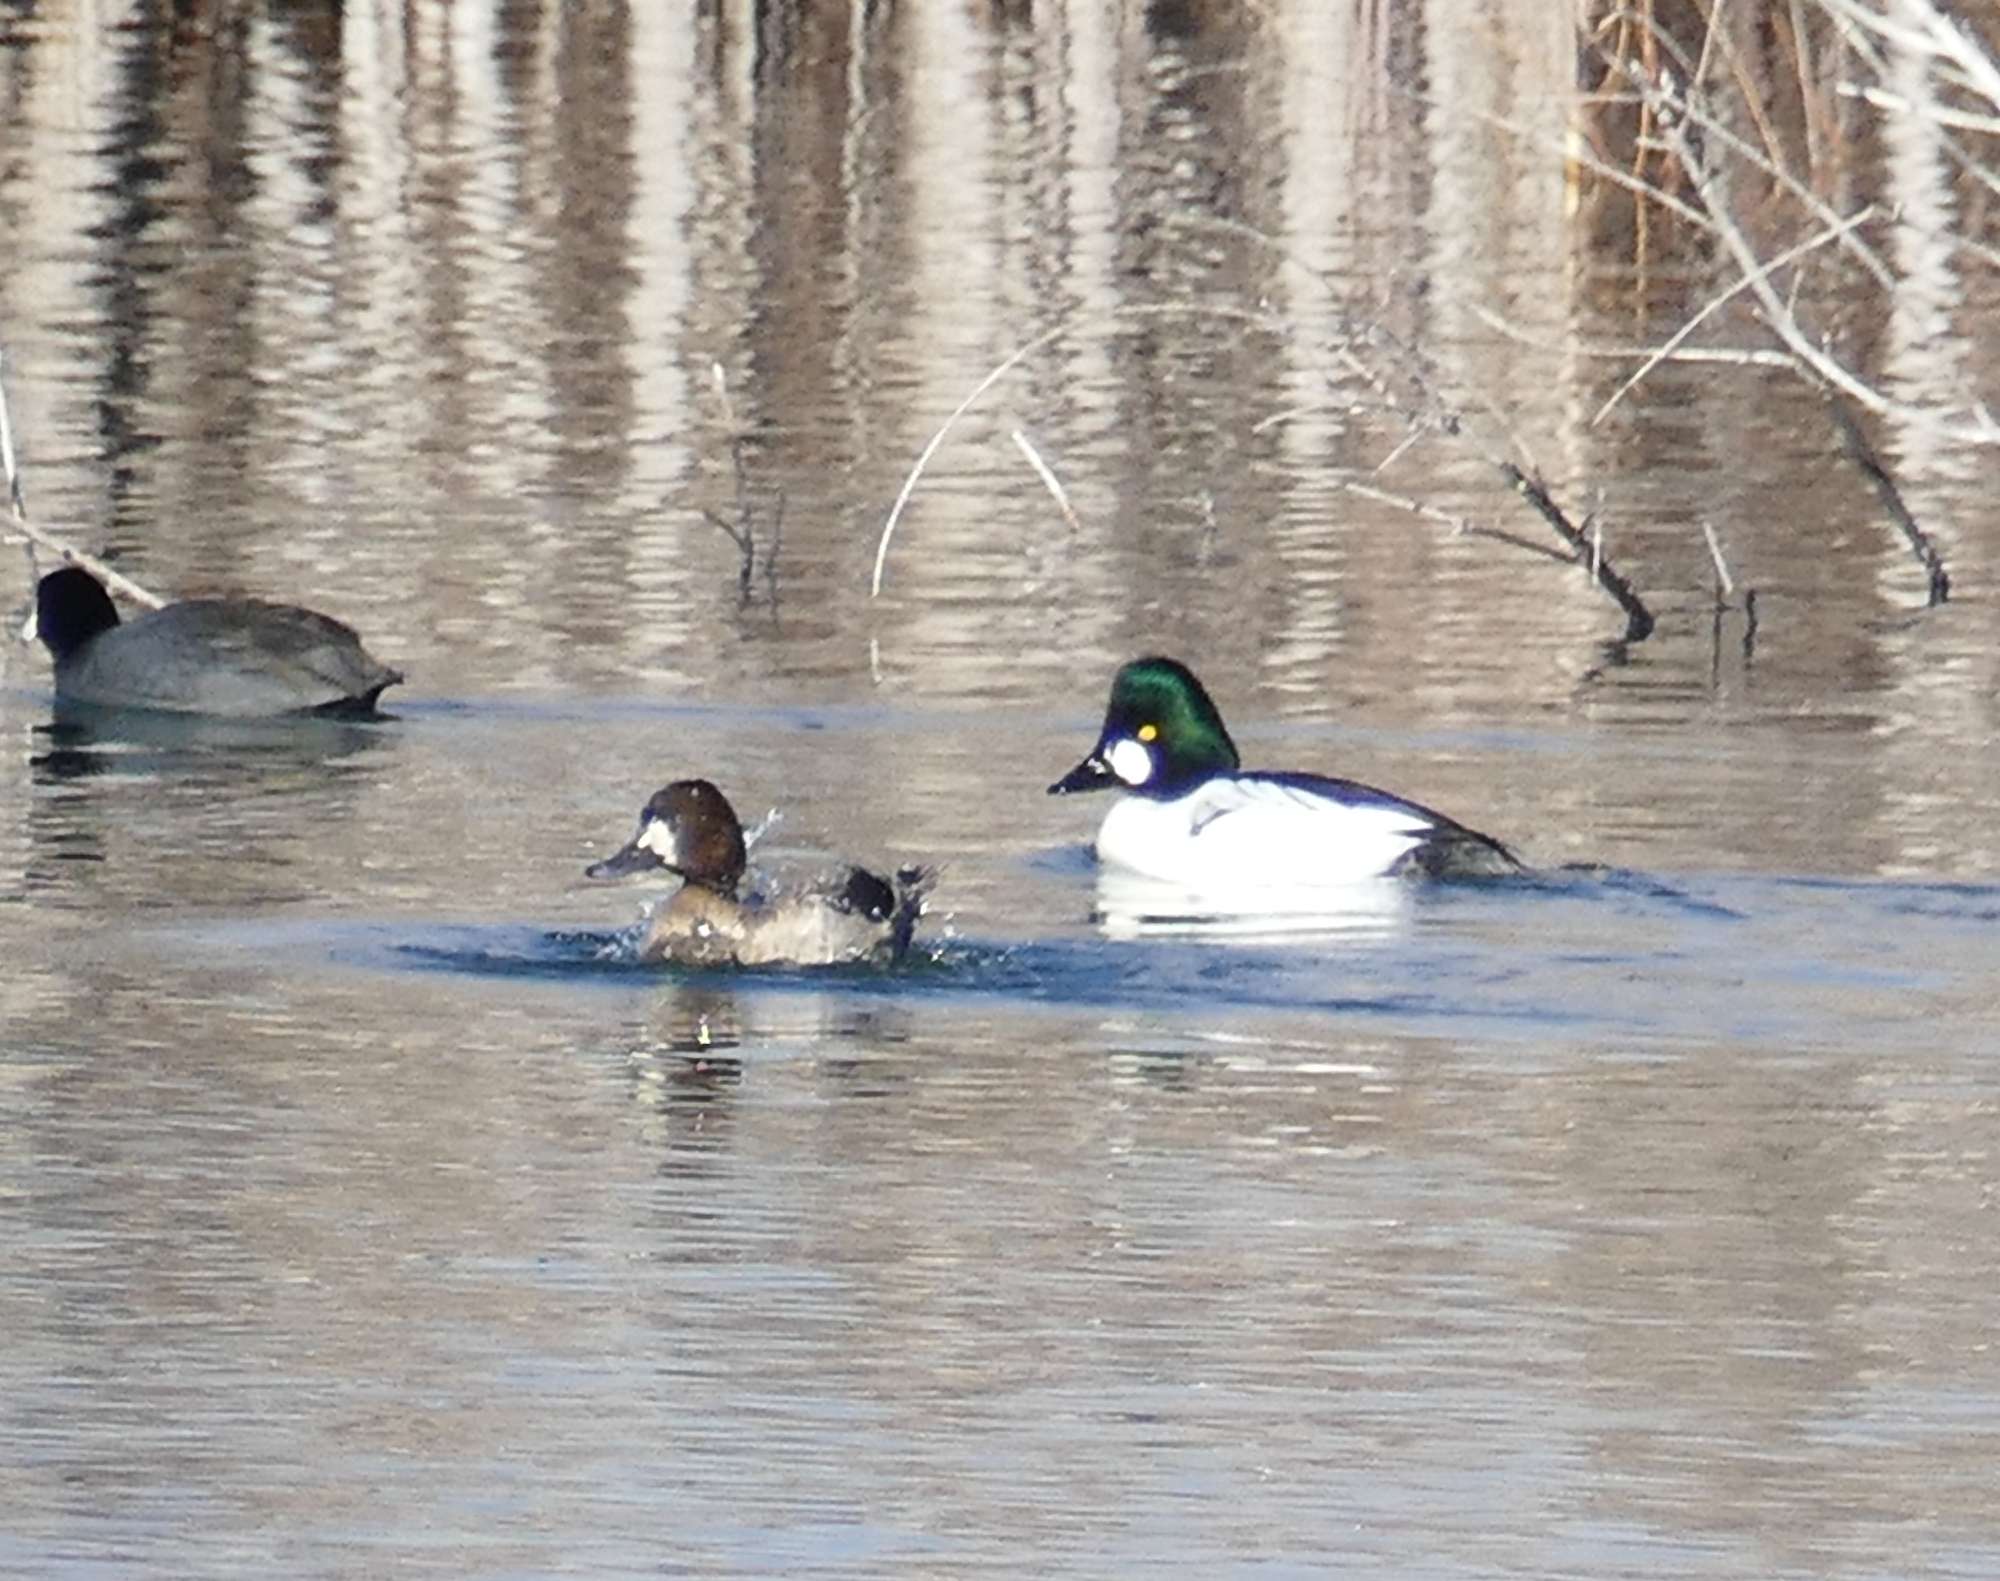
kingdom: Animalia
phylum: Chordata
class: Aves
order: Anseriformes
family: Anatidae
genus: Bucephala
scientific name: Bucephala clangula
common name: Common goldeneye
